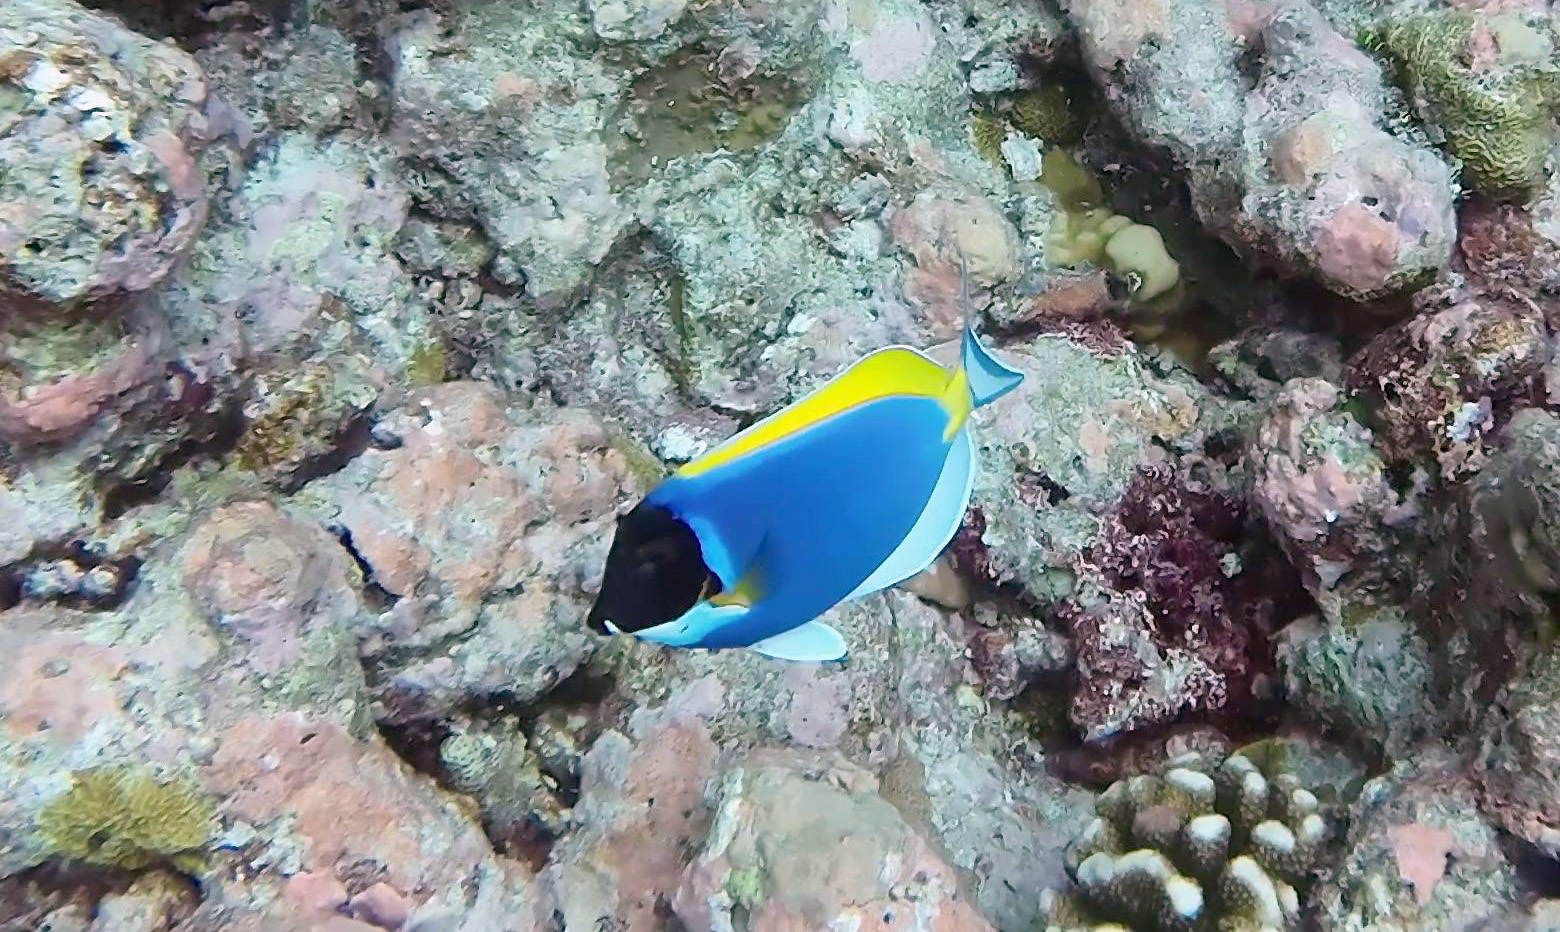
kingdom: Animalia
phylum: Chordata
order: Perciformes
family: Acanthuridae
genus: Acanthurus
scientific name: Acanthurus leucosternon
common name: Blue surgeonfish
